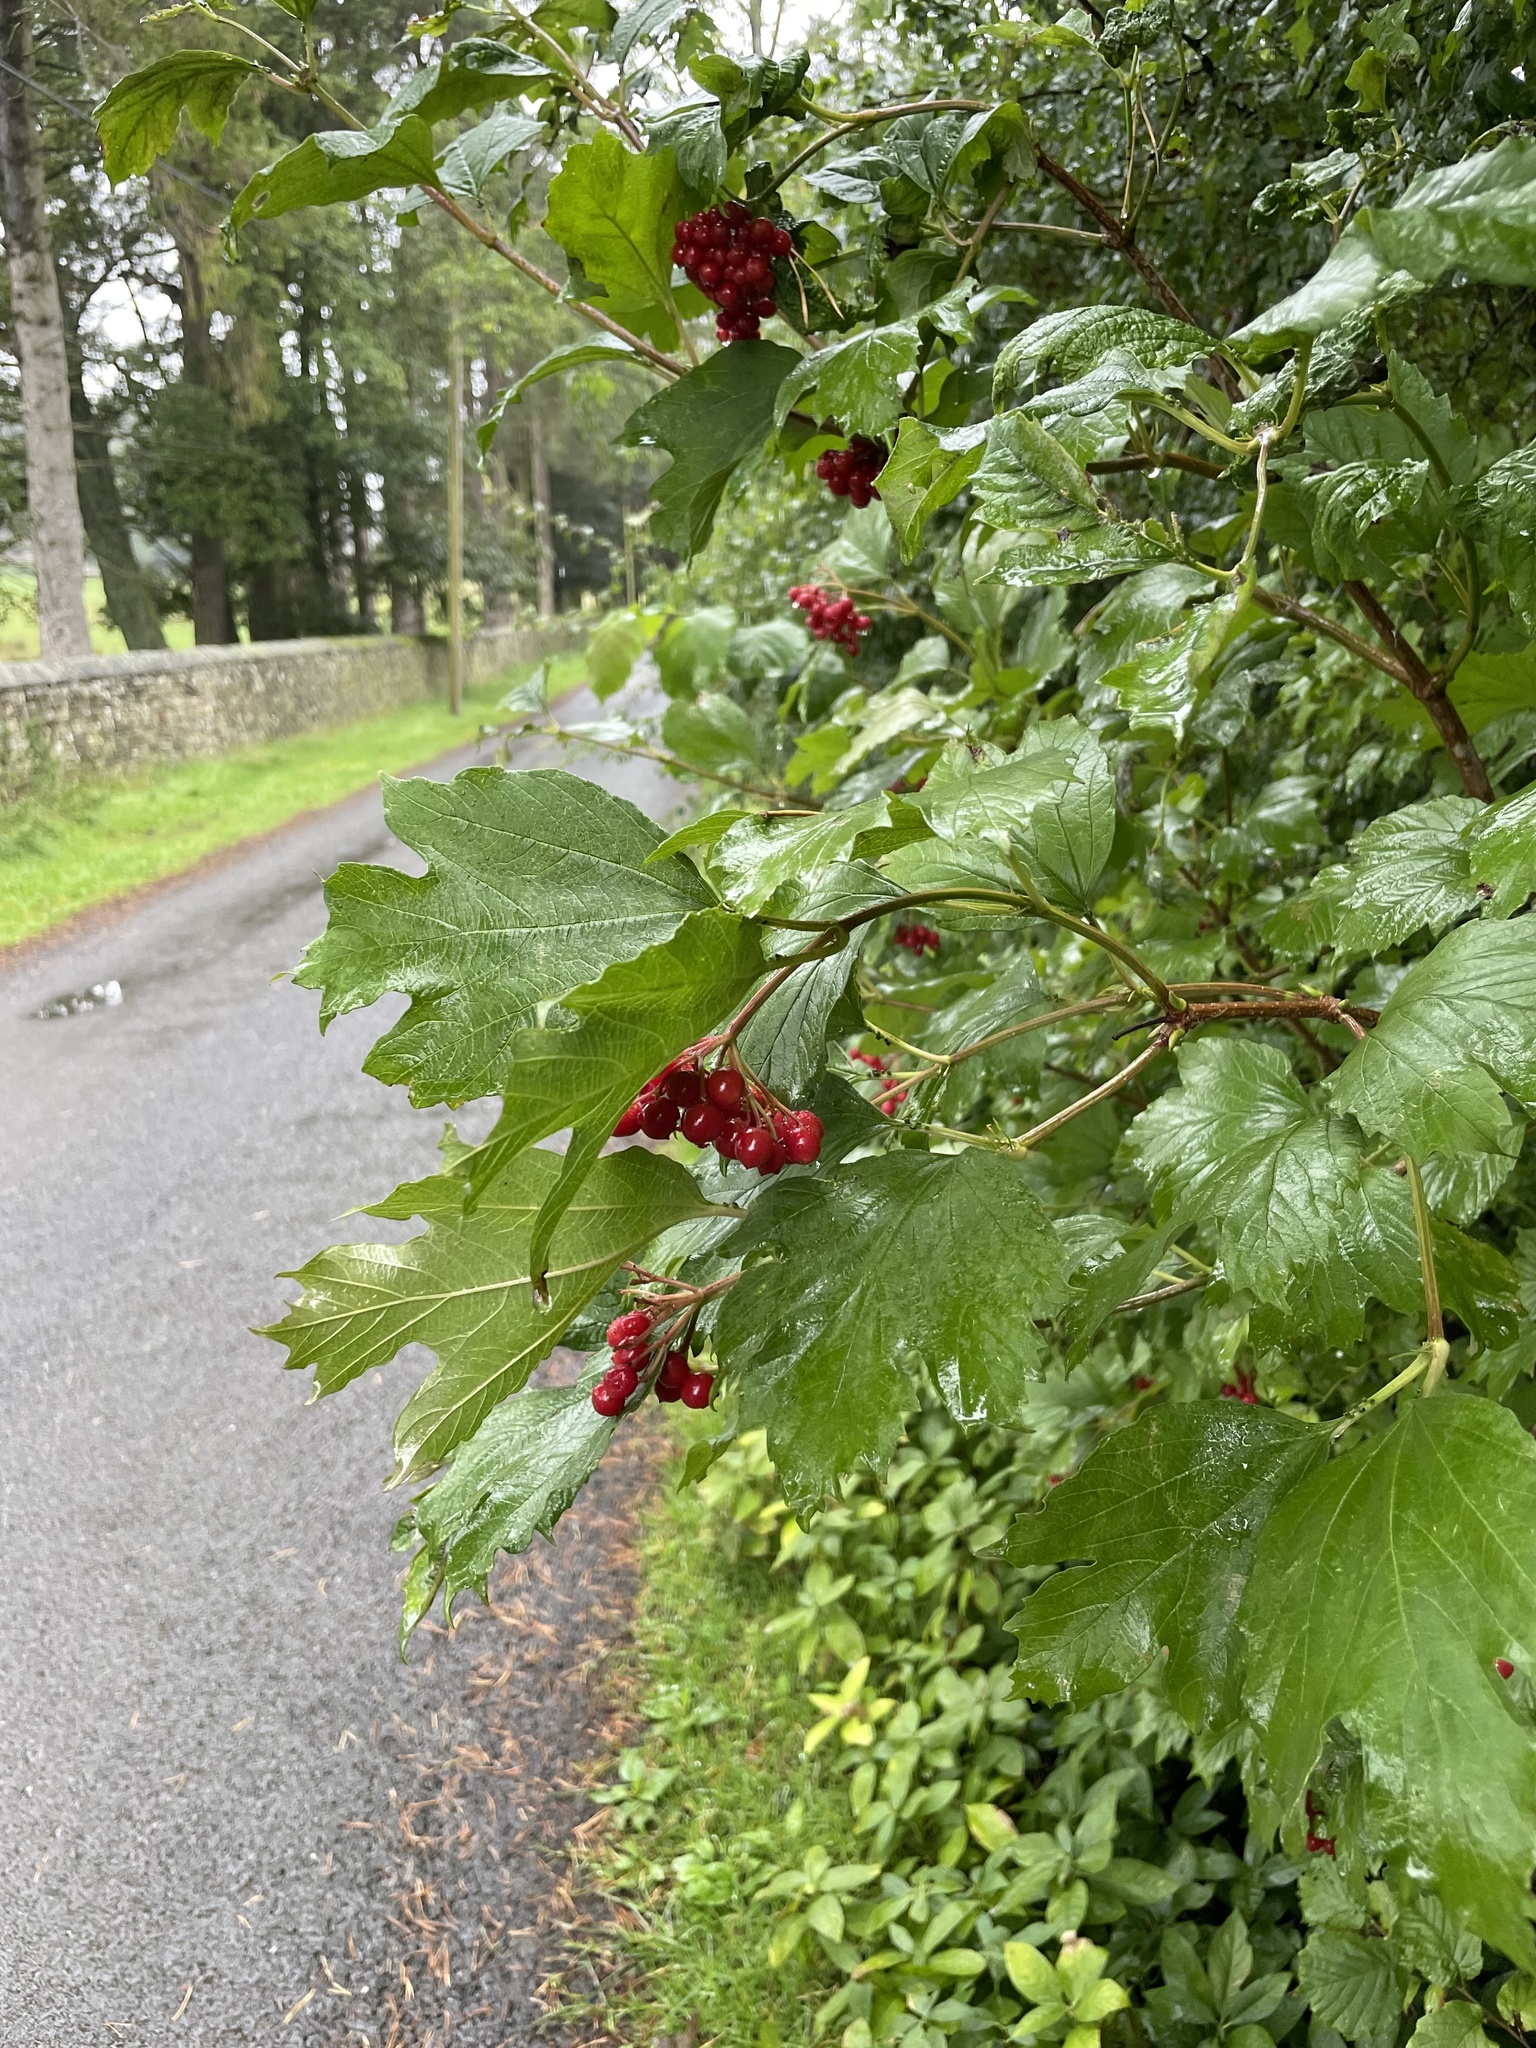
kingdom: Plantae
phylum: Tracheophyta
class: Magnoliopsida
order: Dipsacales
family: Viburnaceae
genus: Viburnum
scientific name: Viburnum opulus
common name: Guelder-rose
